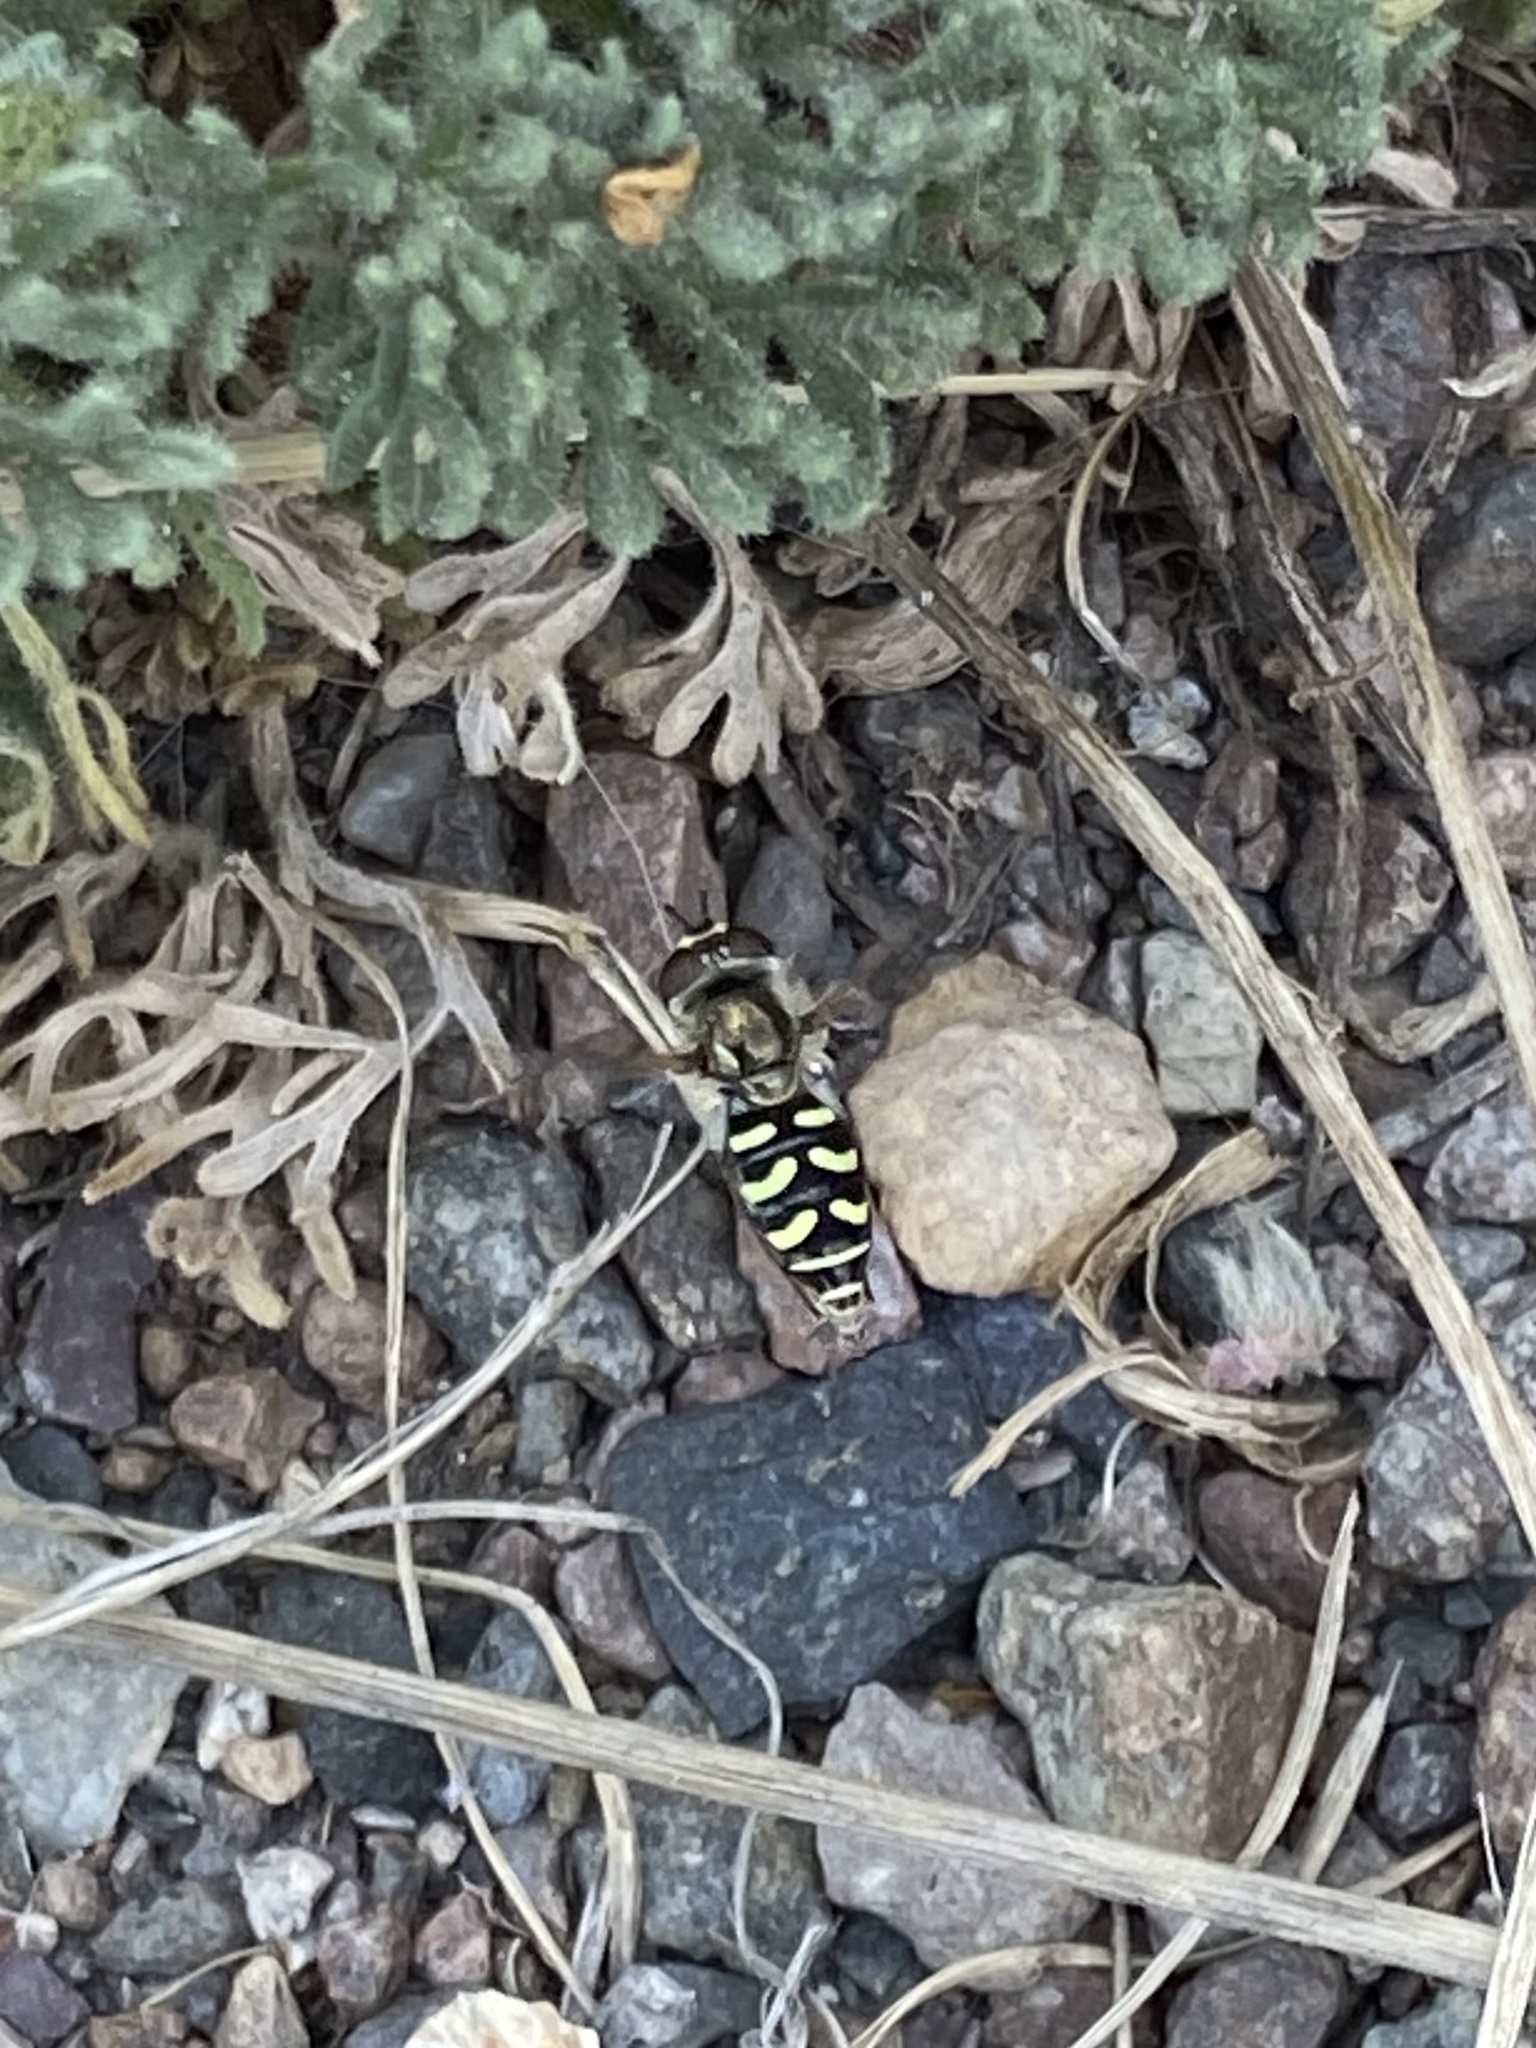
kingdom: Animalia
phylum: Arthropoda
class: Insecta
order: Diptera
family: Syrphidae
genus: Eupeodes
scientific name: Eupeodes volucris
